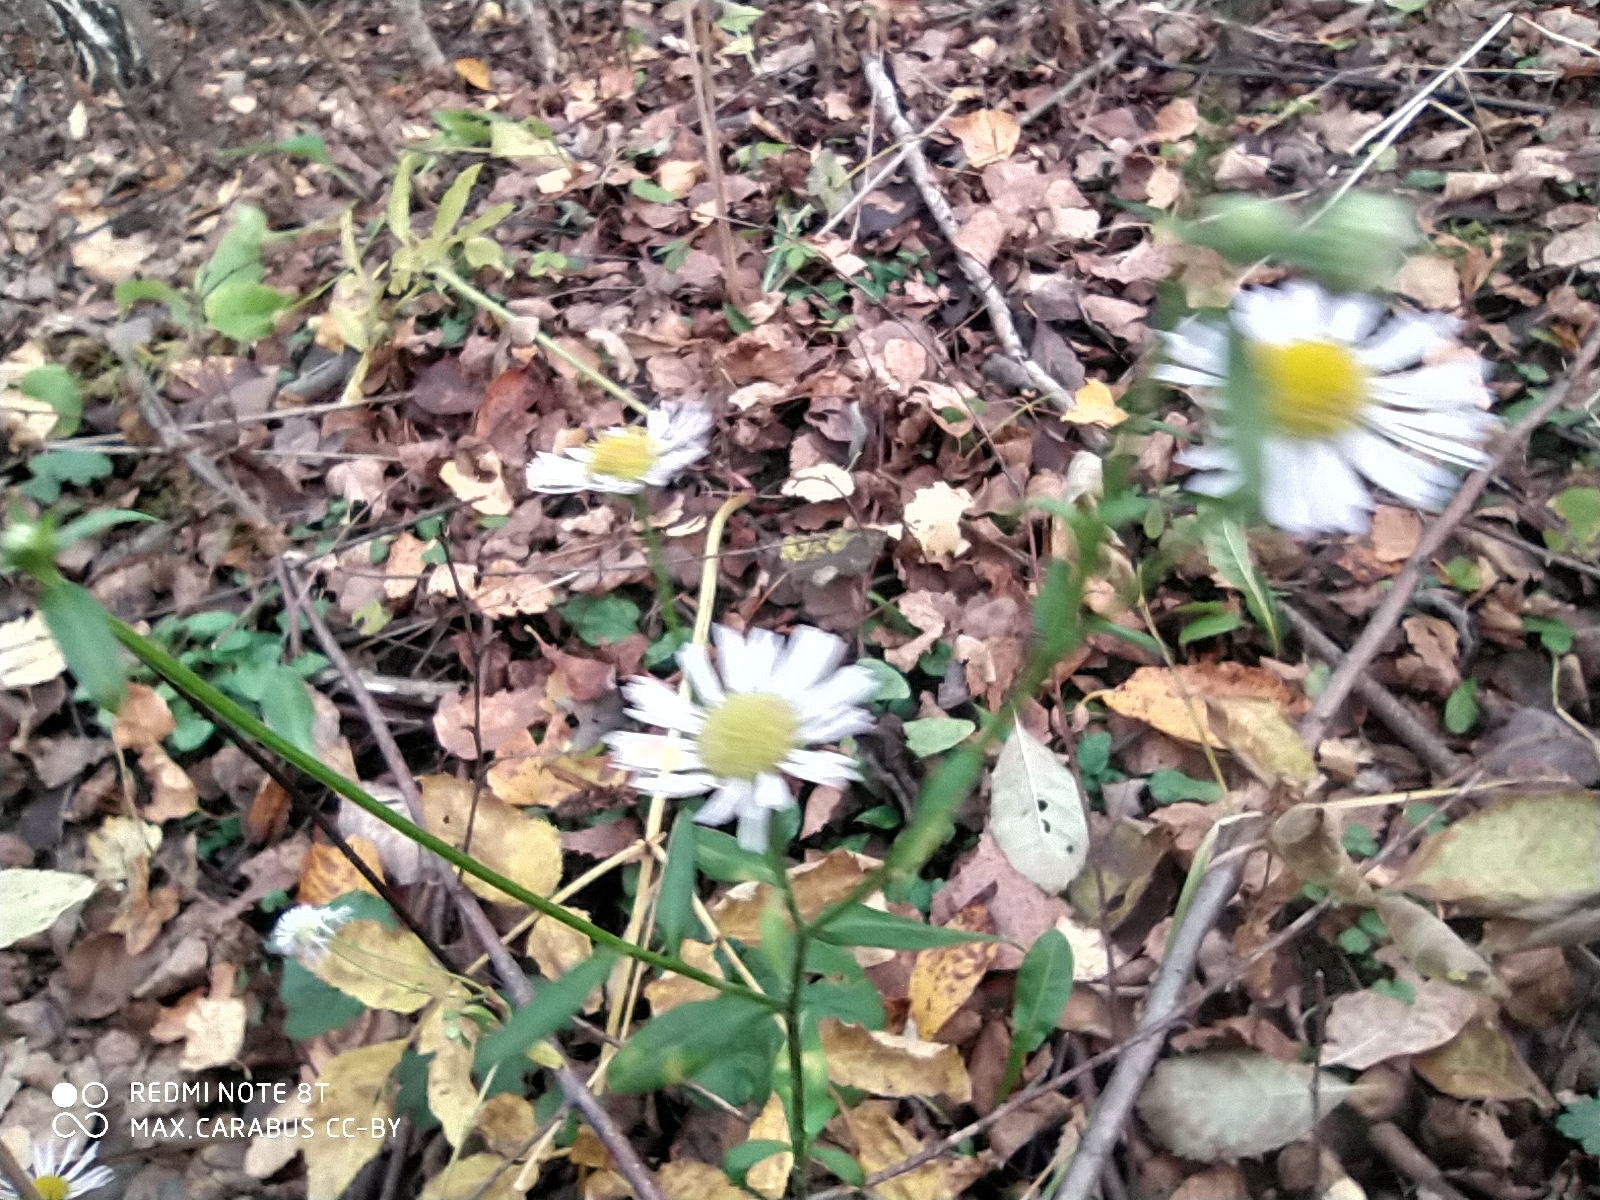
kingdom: Plantae
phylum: Tracheophyta
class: Magnoliopsida
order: Asterales
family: Asteraceae
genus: Erigeron
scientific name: Erigeron annuus
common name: Tall fleabane
